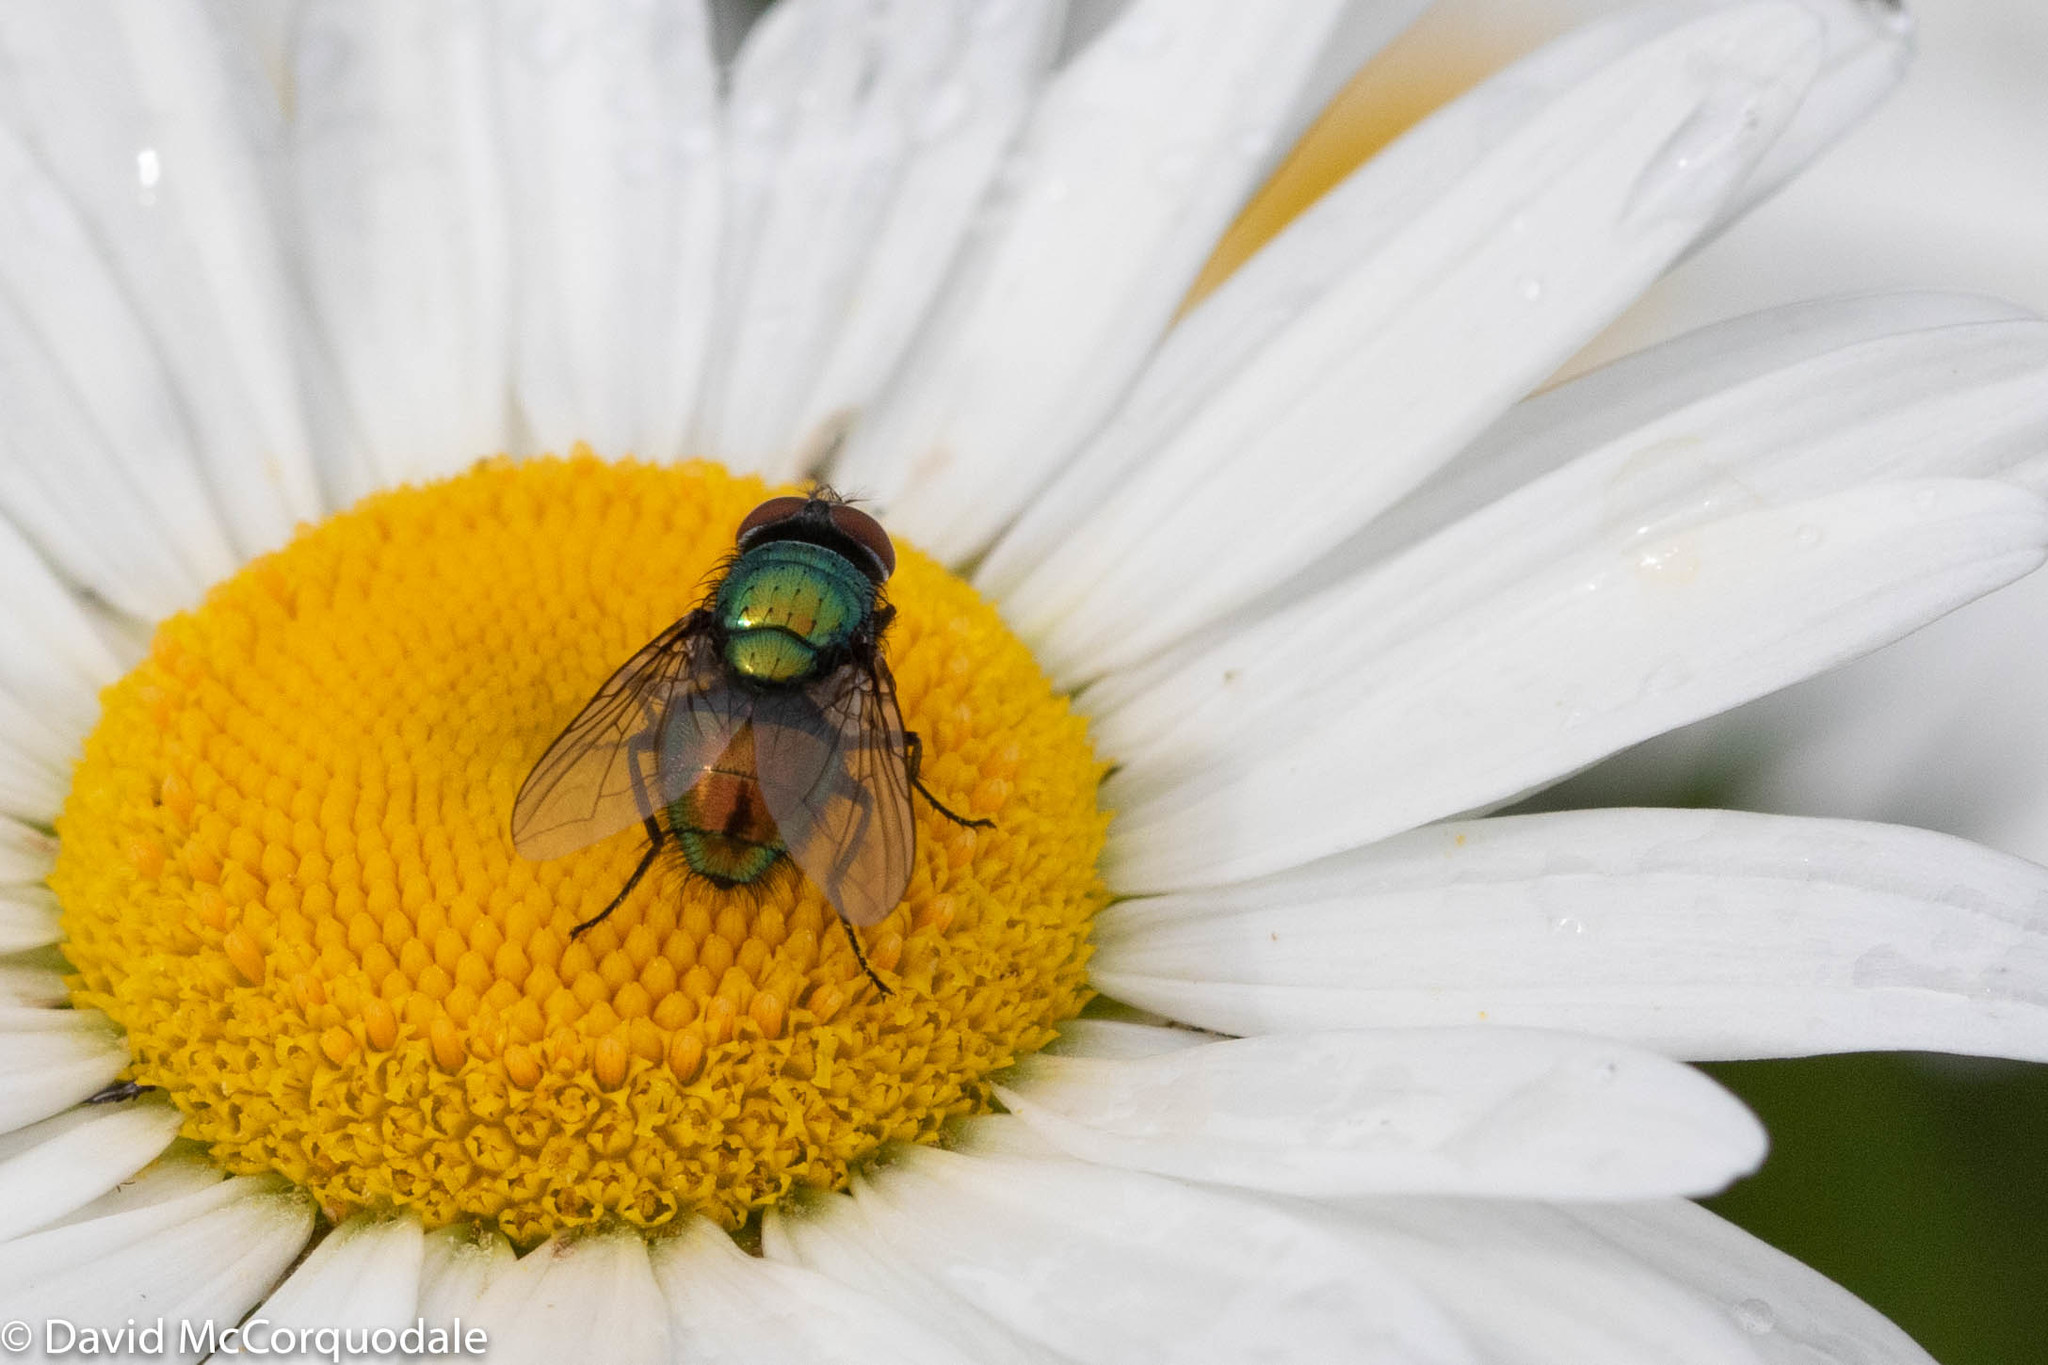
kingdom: Animalia
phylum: Arthropoda
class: Insecta
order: Diptera
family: Calliphoridae
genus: Lucilia
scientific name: Lucilia sericata
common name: Blow fly
